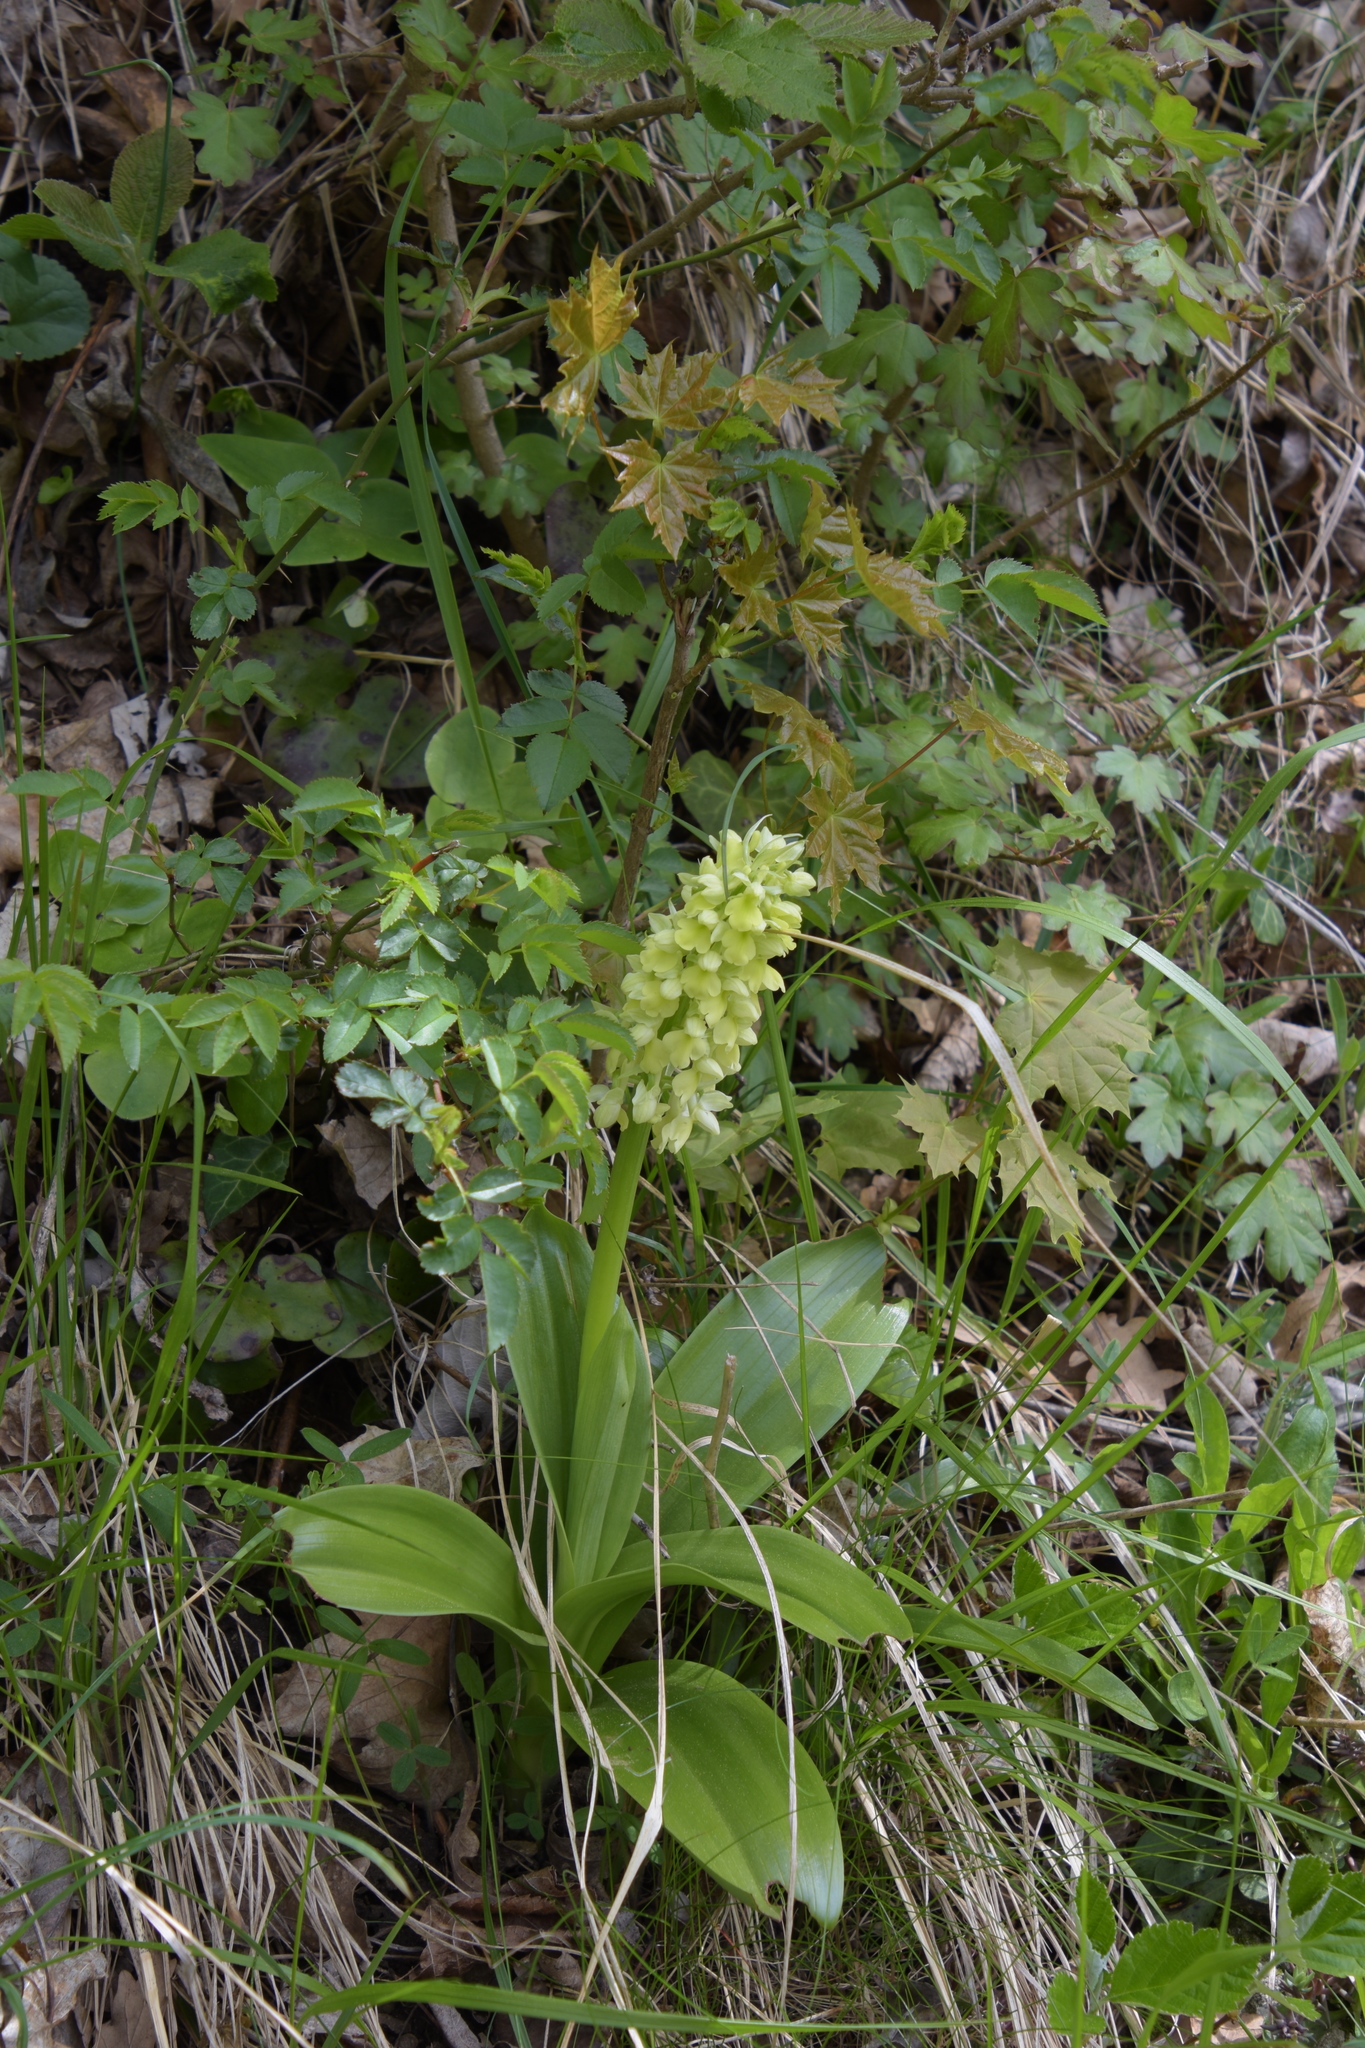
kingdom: Plantae
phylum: Tracheophyta
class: Liliopsida
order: Asparagales
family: Orchidaceae
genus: Orchis
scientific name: Orchis pallens
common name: Pale-flowered orchid
